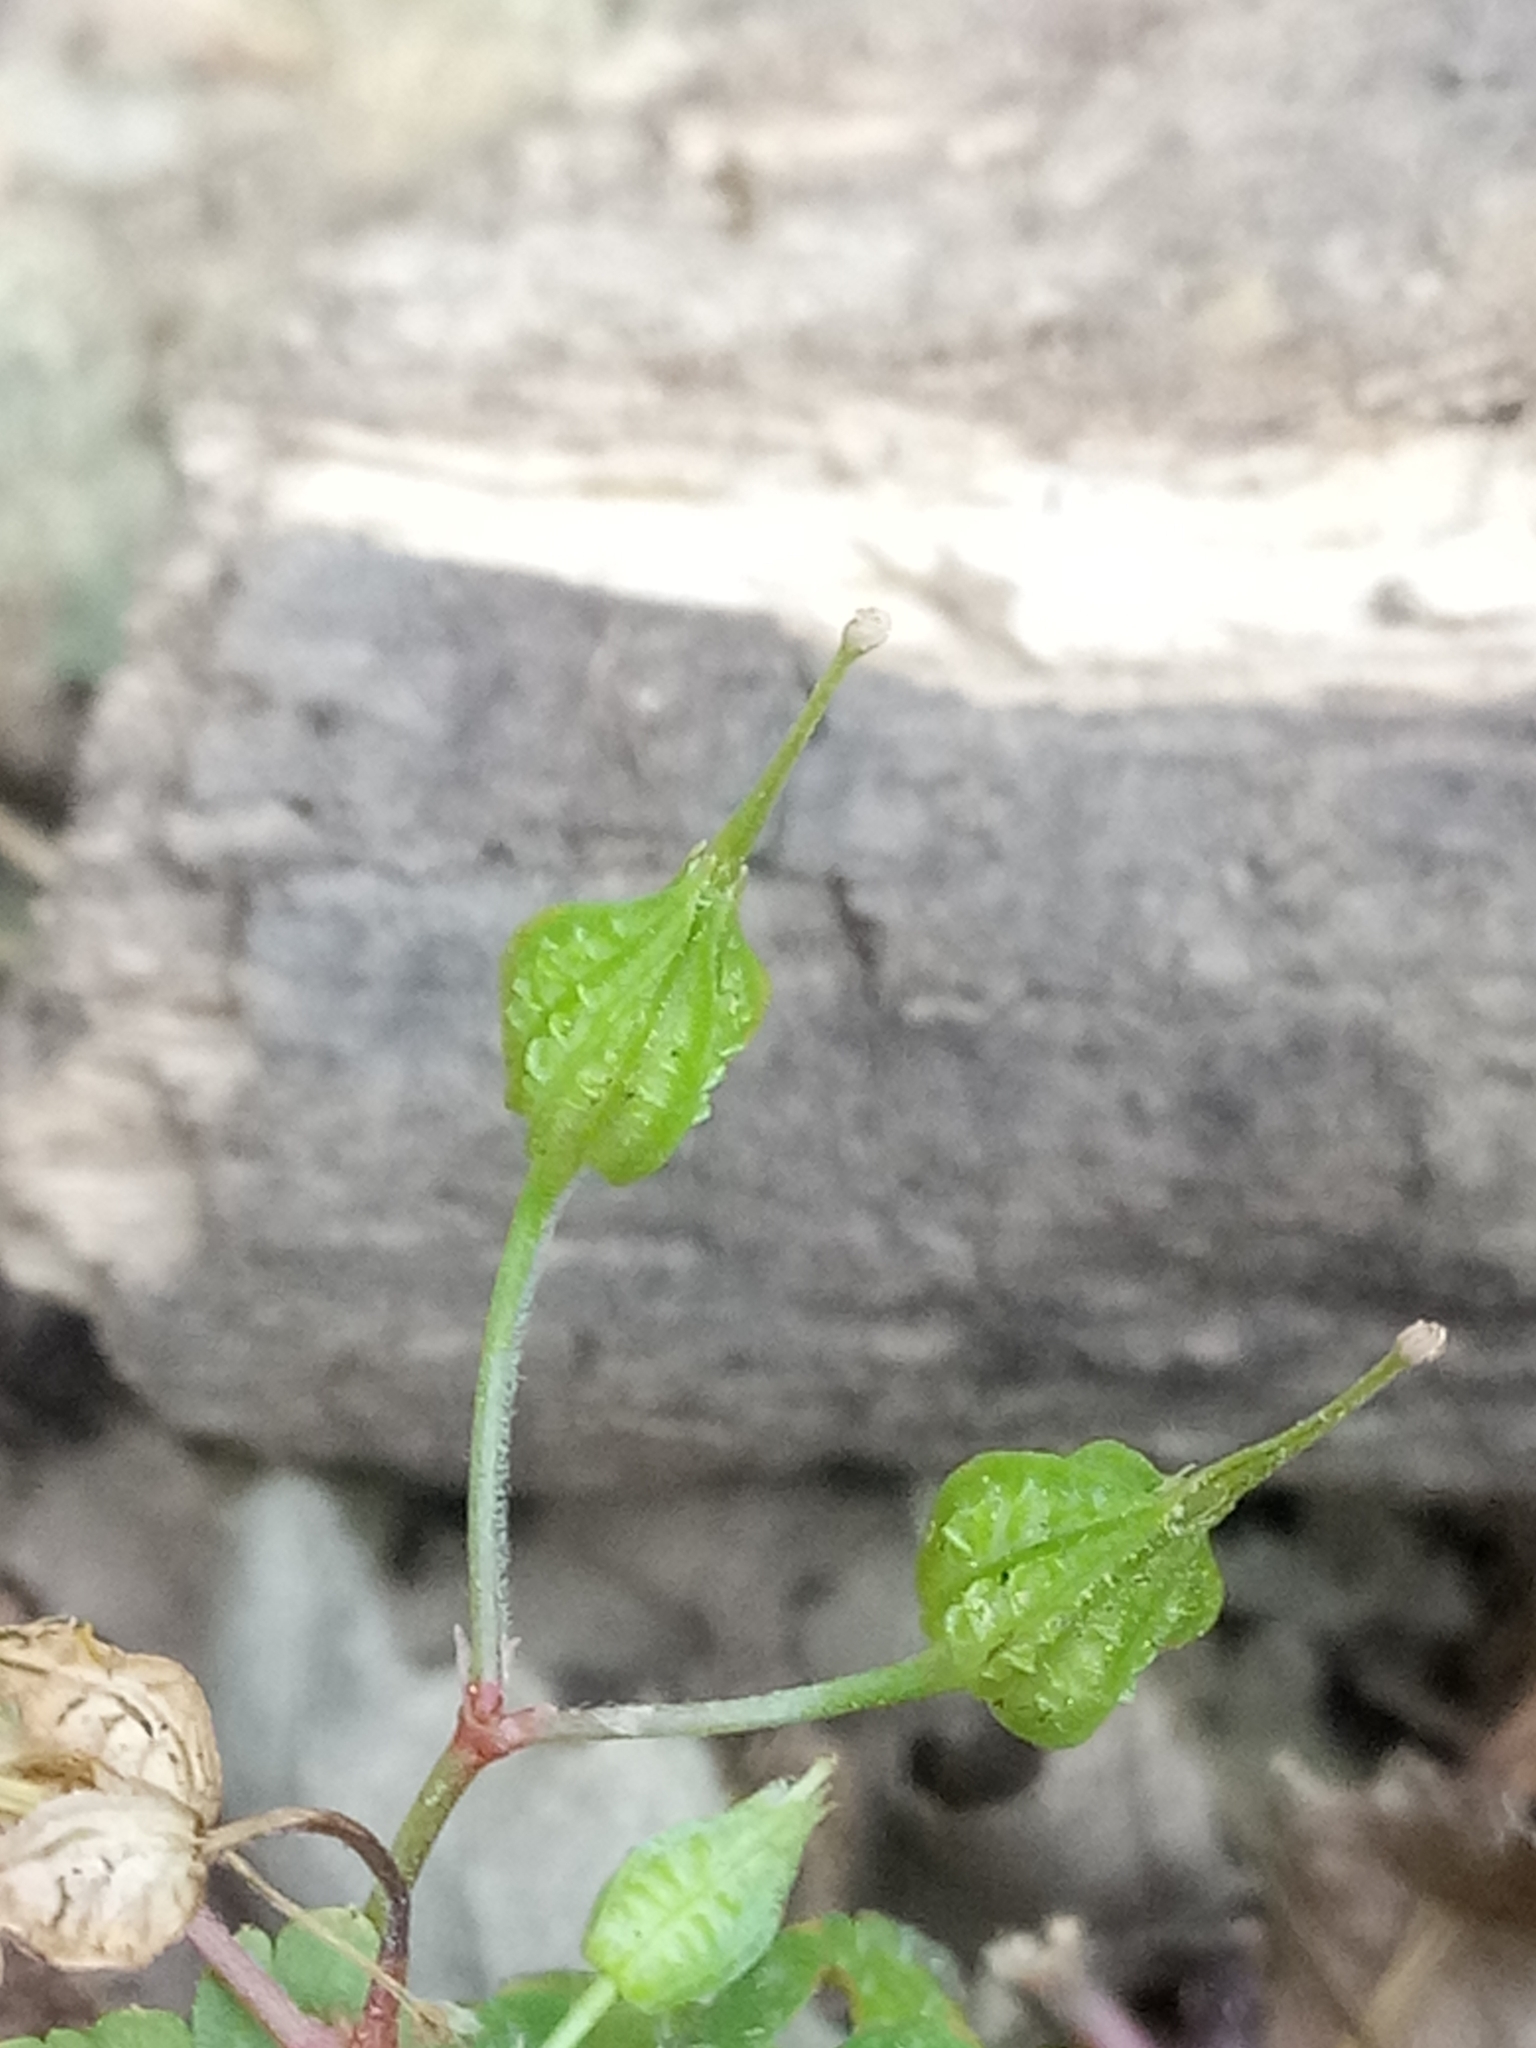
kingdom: Plantae
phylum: Tracheophyta
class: Magnoliopsida
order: Geraniales
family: Geraniaceae
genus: Geranium
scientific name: Geranium lucidum
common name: Shining crane's-bill
